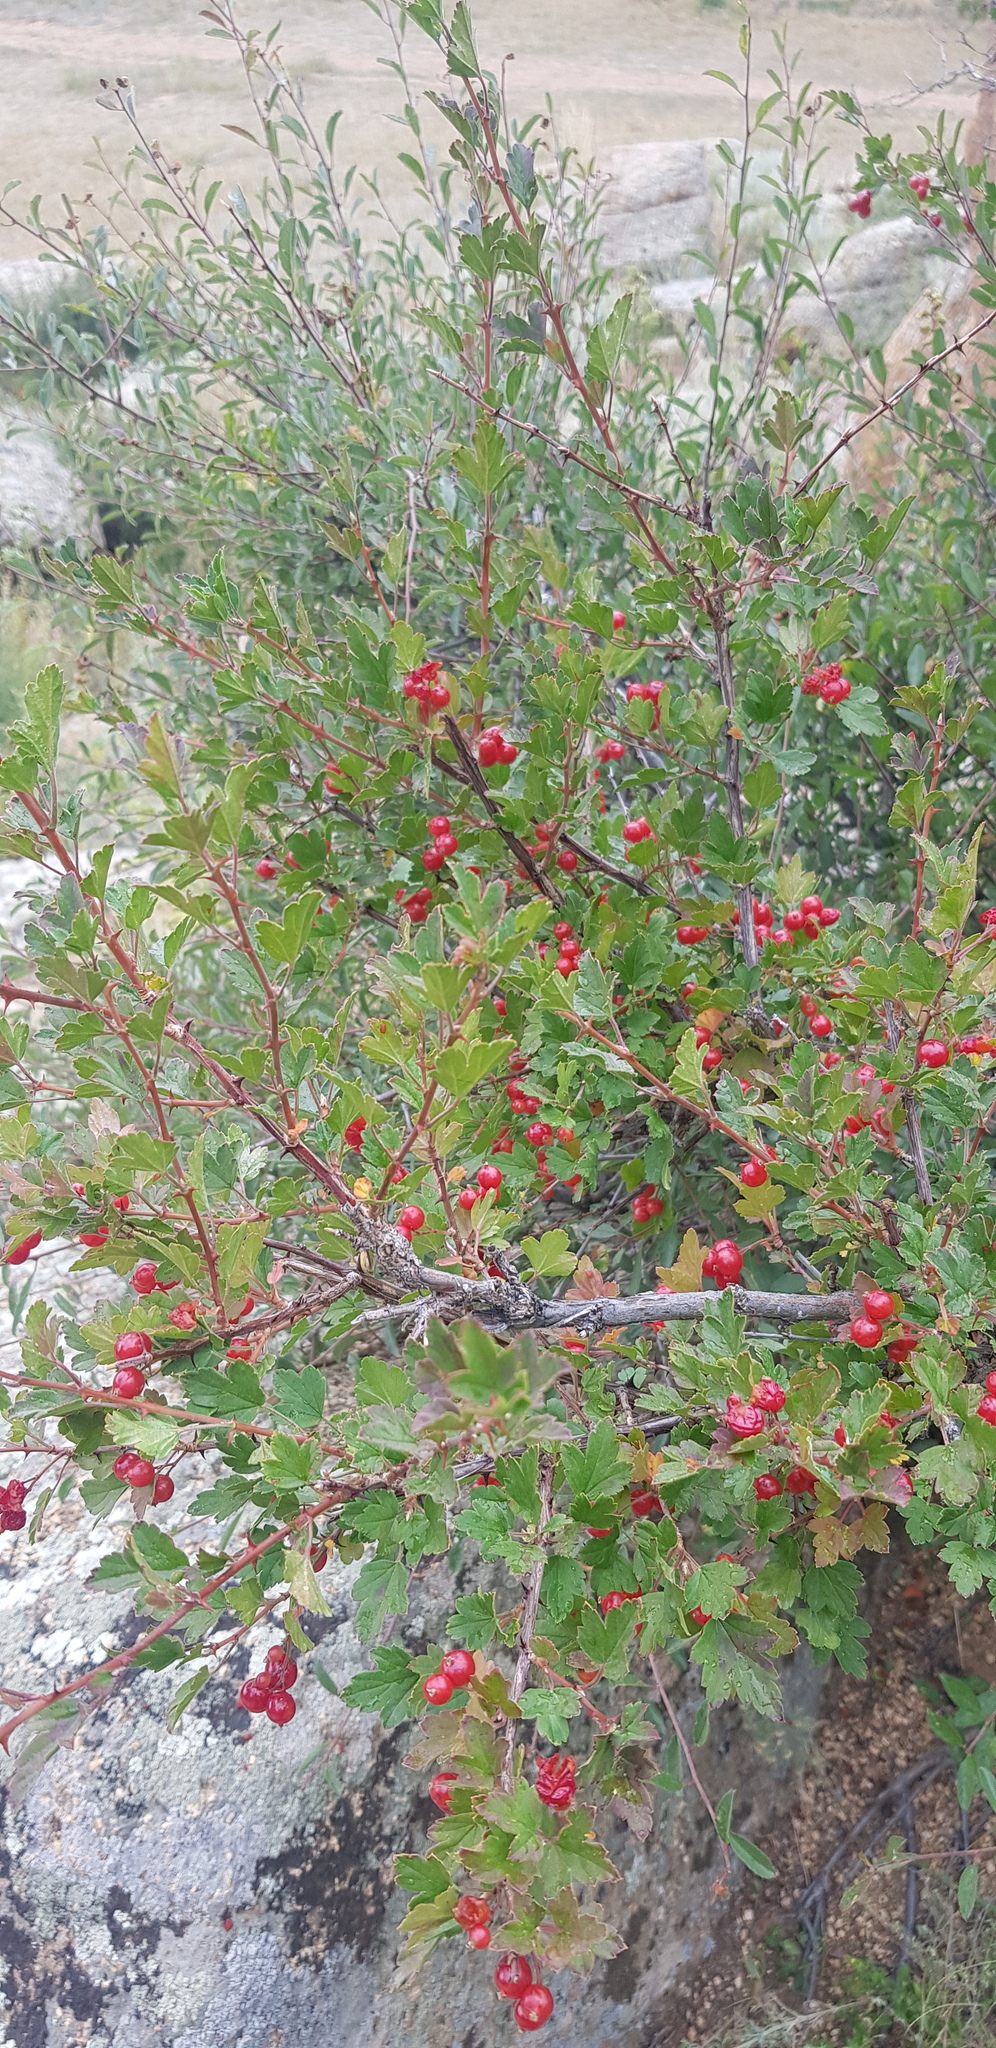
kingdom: Plantae
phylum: Tracheophyta
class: Magnoliopsida
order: Saxifragales
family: Grossulariaceae
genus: Ribes
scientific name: Ribes diacanthum
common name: Siberian currant
